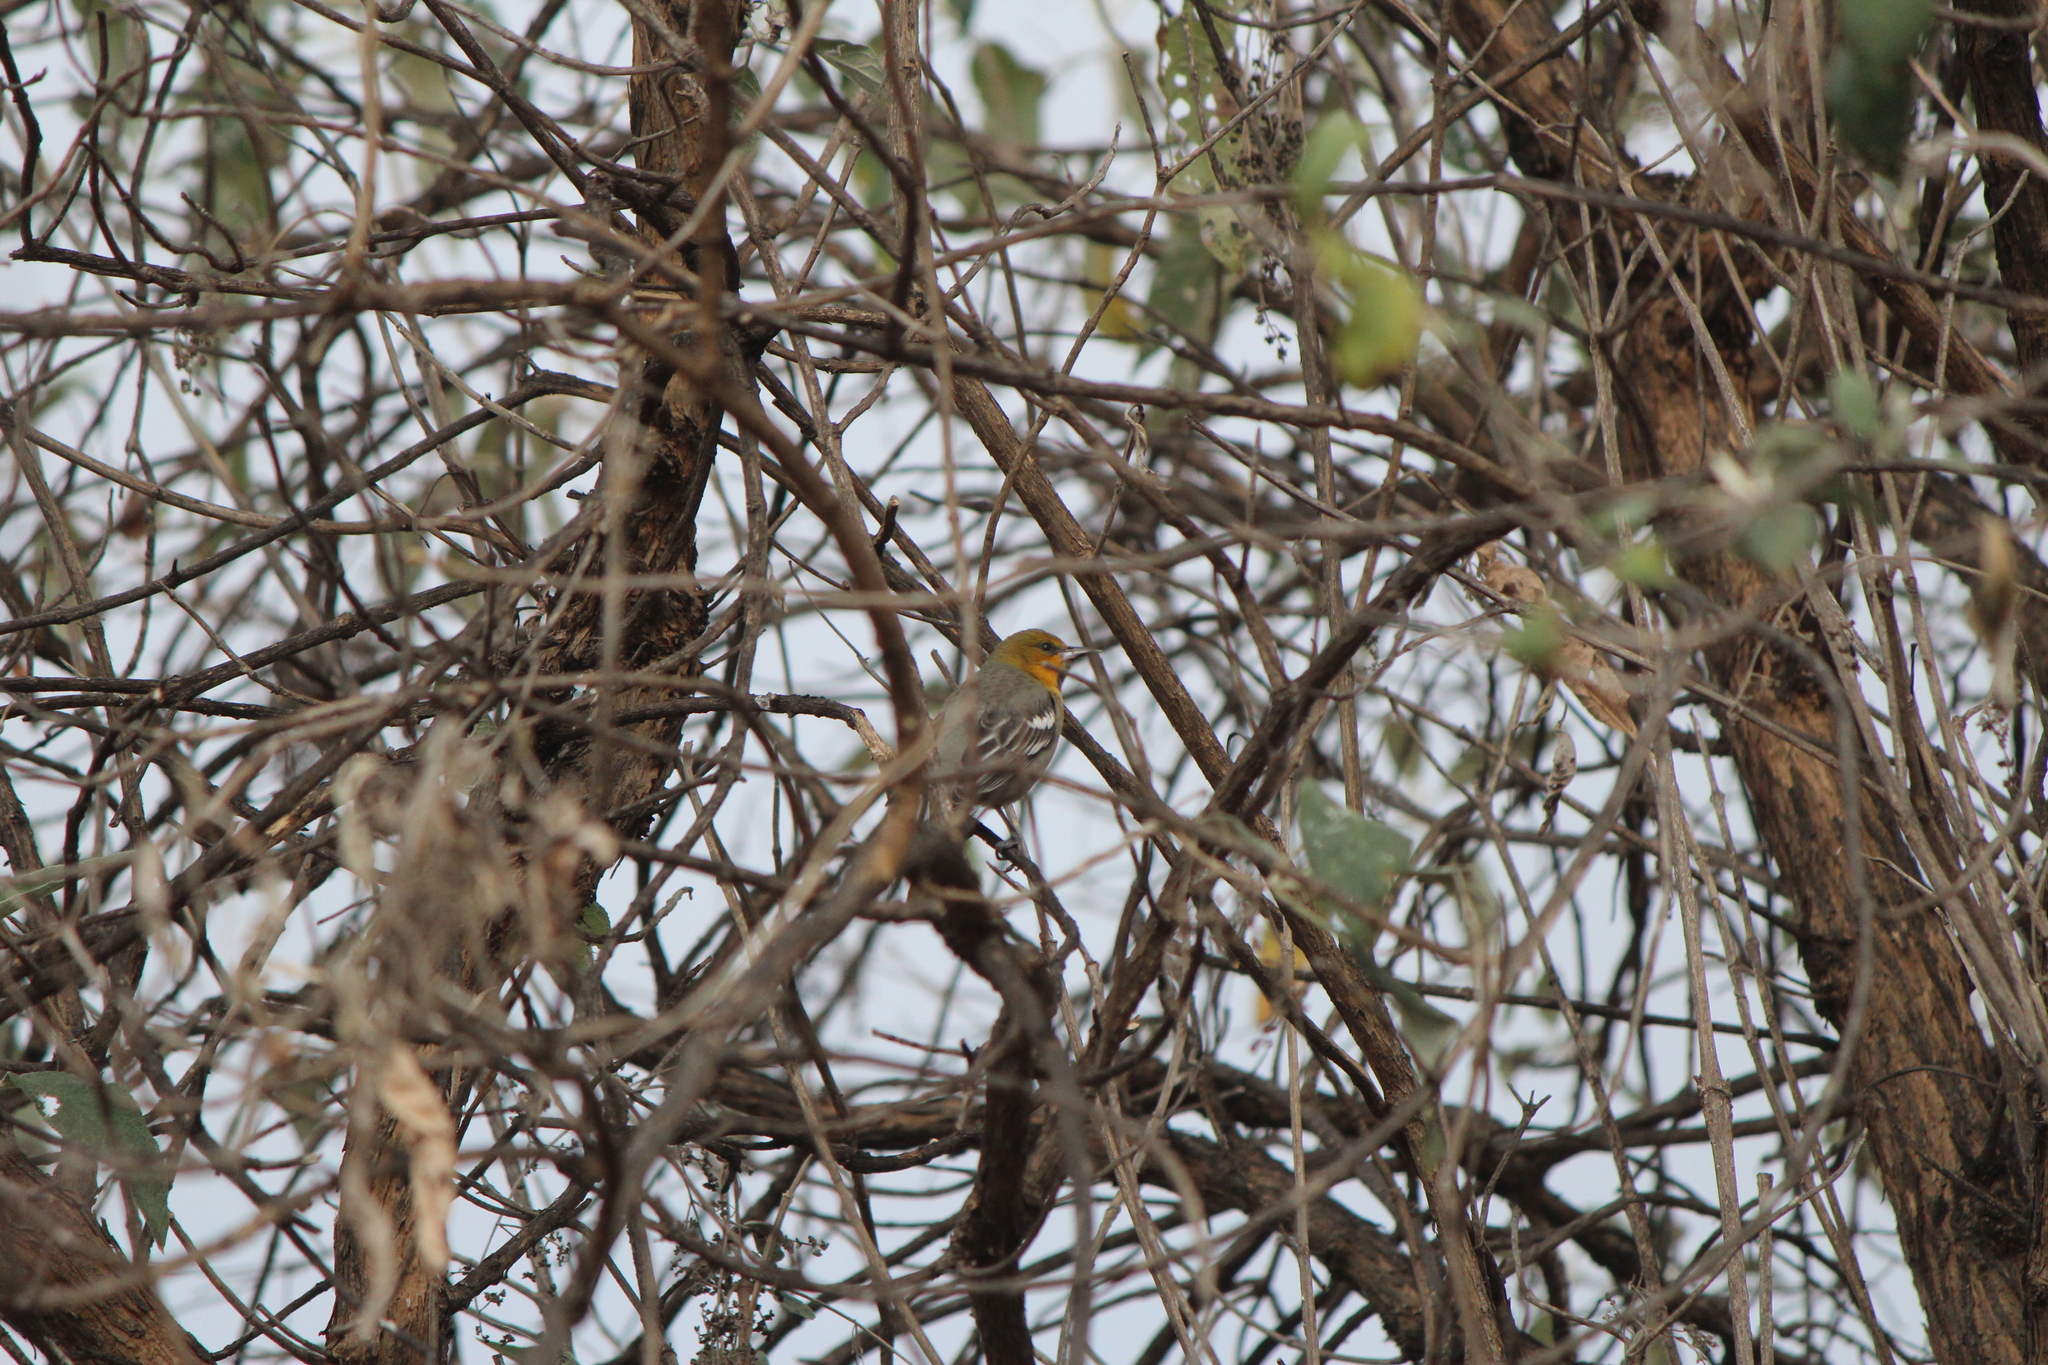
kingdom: Animalia
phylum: Chordata
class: Aves
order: Passeriformes
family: Icteridae
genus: Icterus
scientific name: Icterus abeillei
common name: Black-backed oriole
